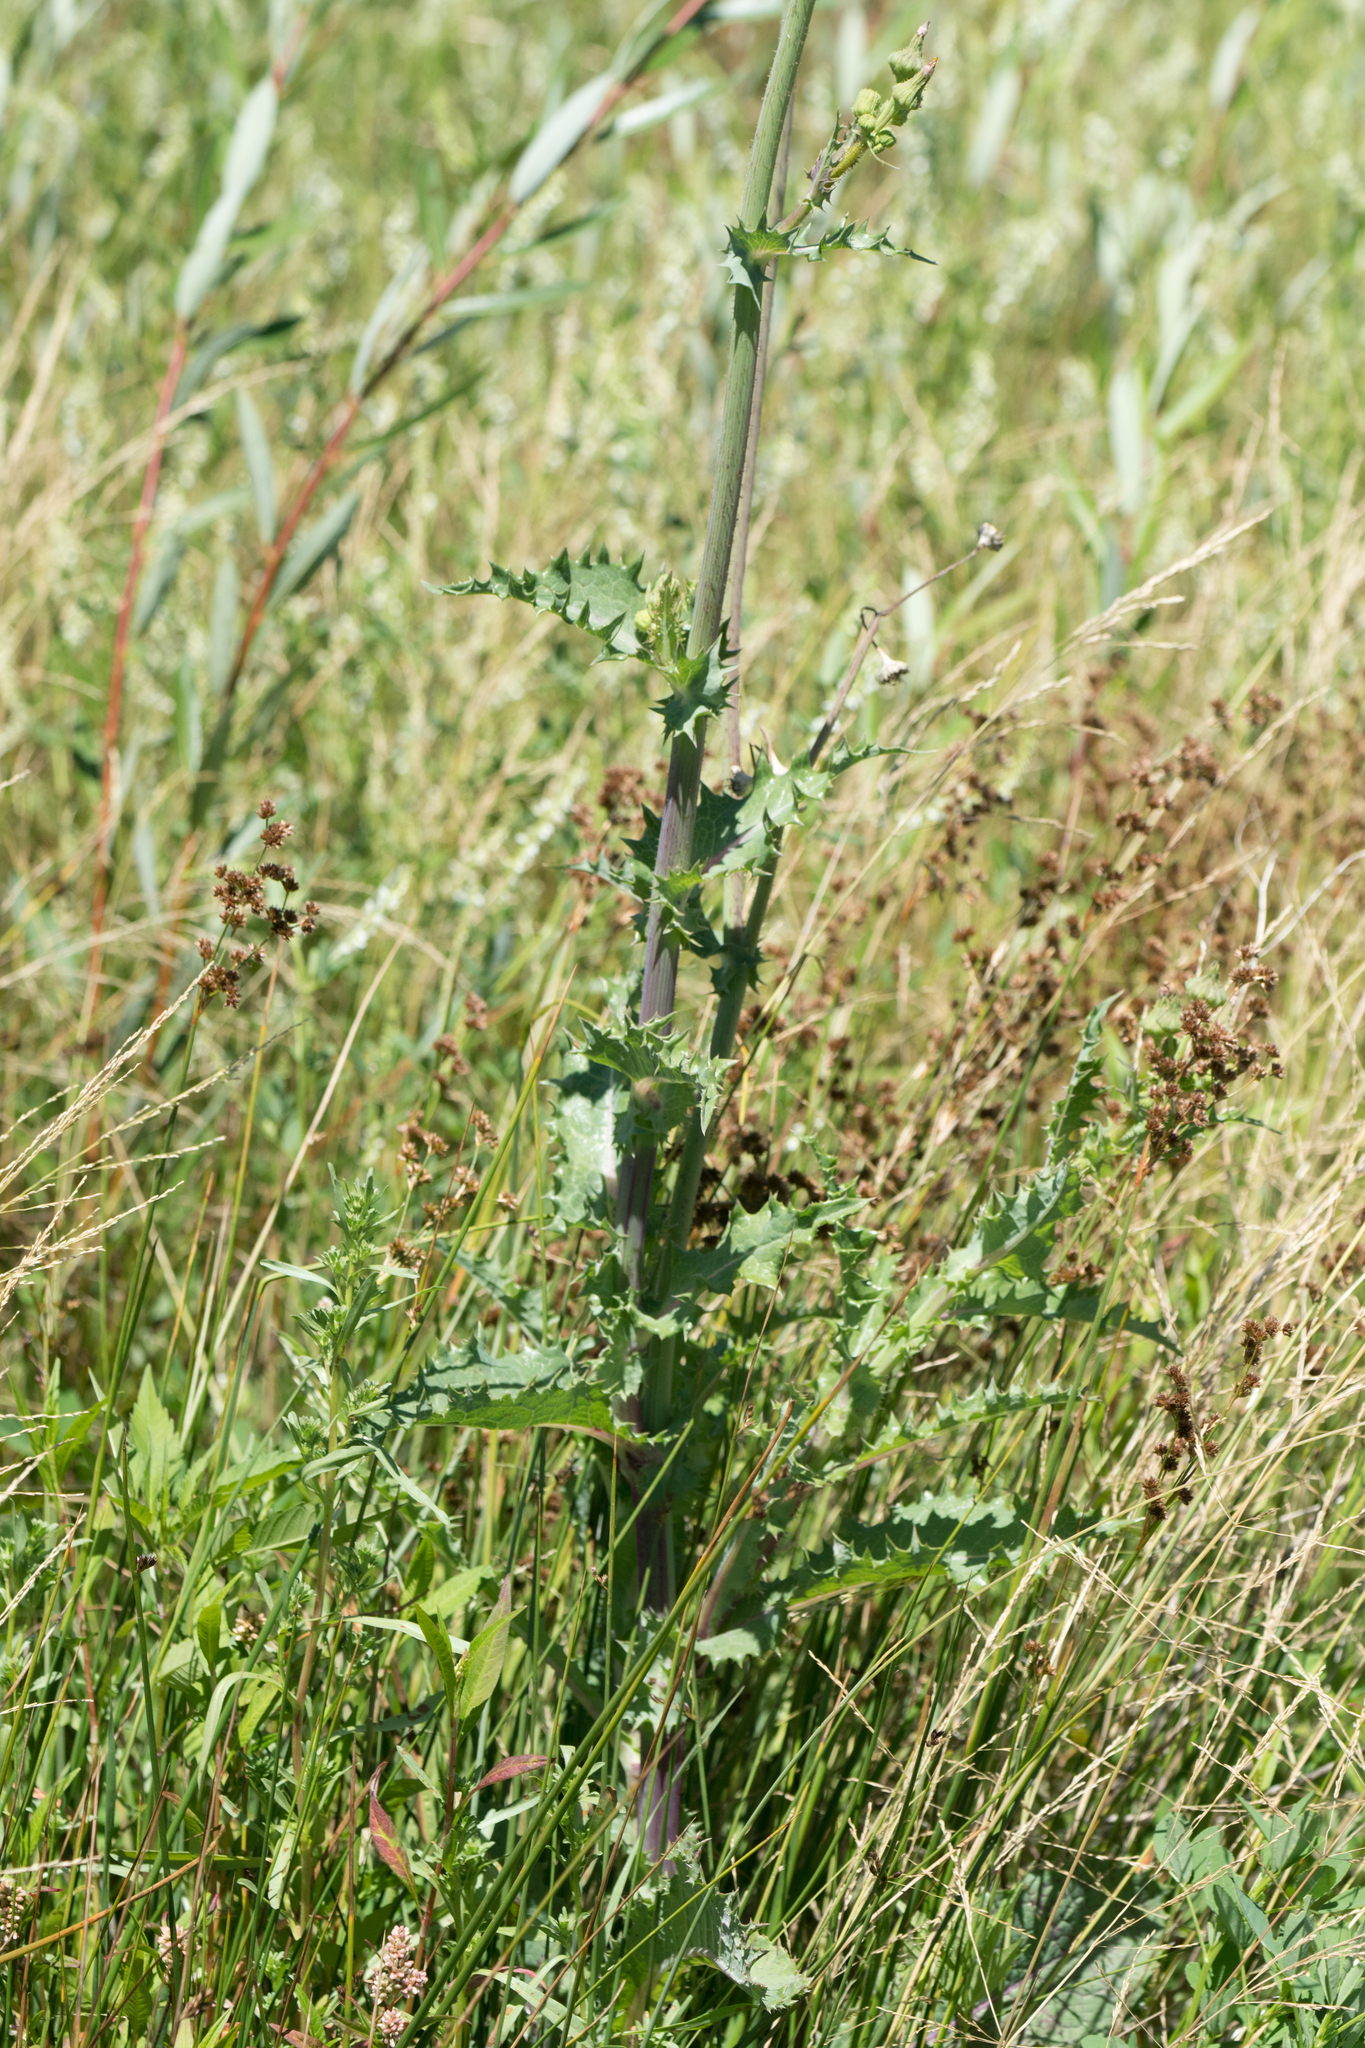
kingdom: Plantae
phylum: Tracheophyta
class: Magnoliopsida
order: Asterales
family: Asteraceae
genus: Sonchus
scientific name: Sonchus asper
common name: Prickly sow-thistle
